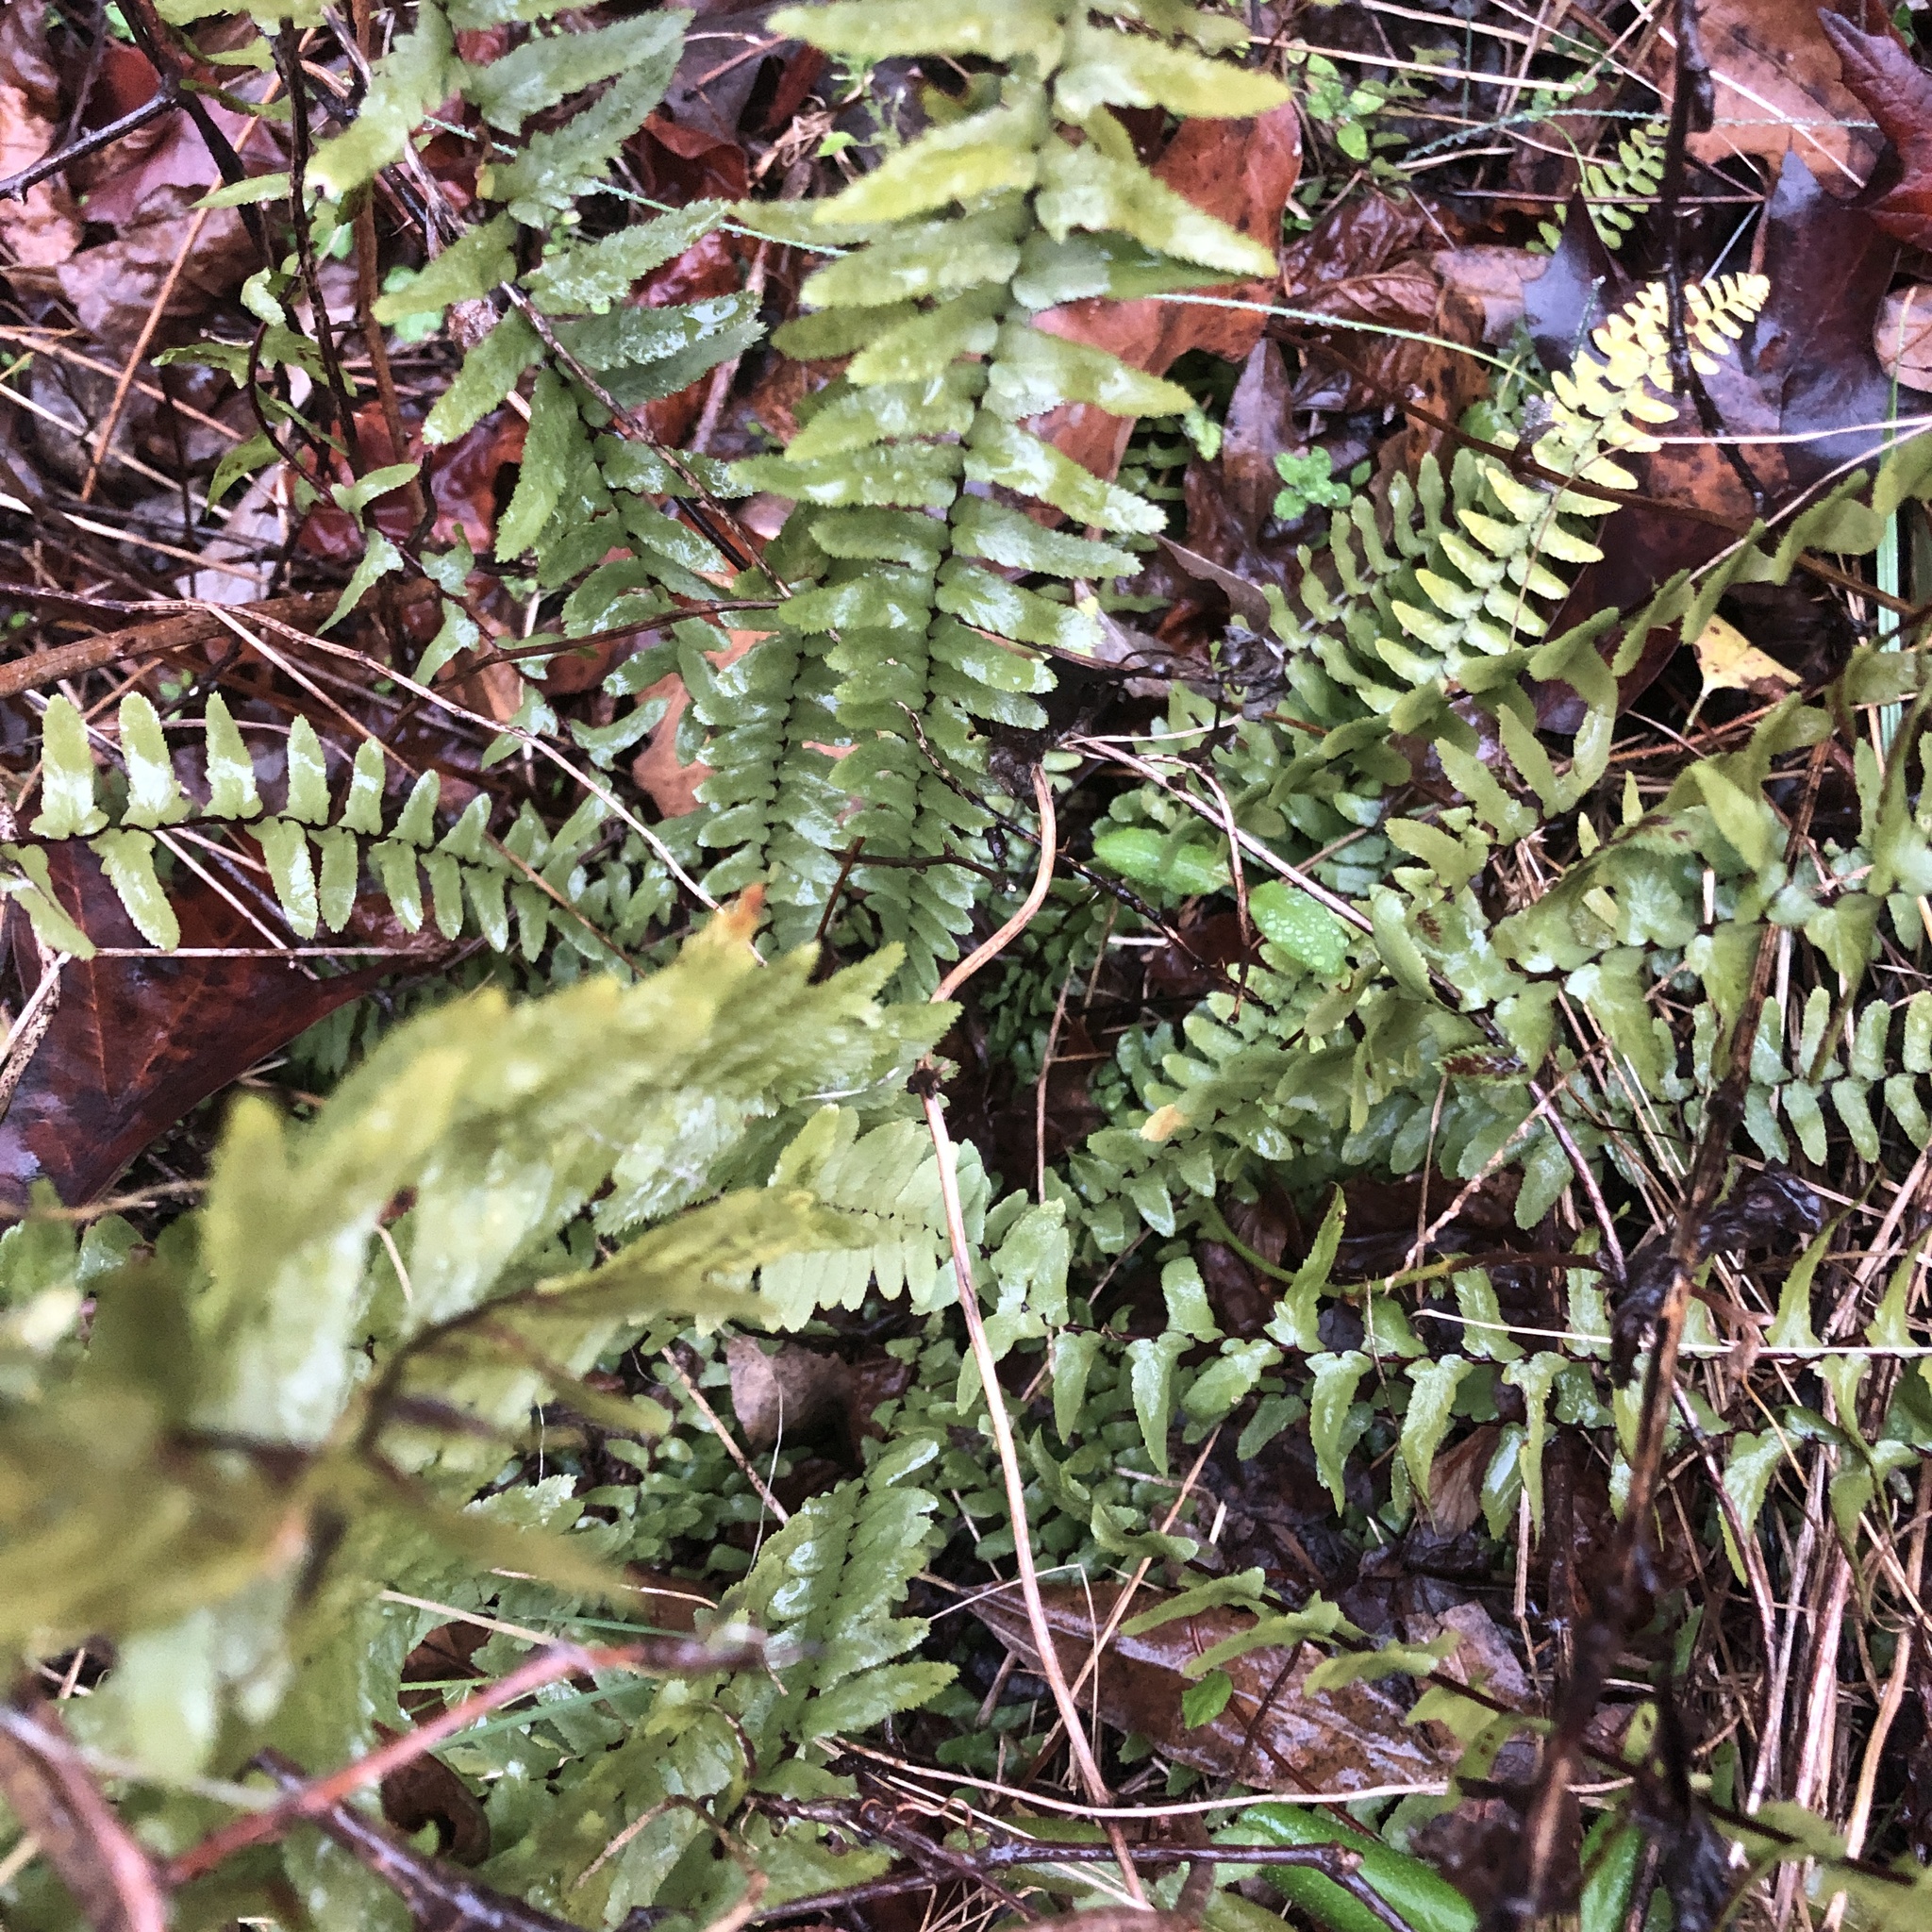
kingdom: Plantae
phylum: Tracheophyta
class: Polypodiopsida
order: Polypodiales
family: Aspleniaceae
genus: Asplenium
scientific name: Asplenium platyneuron
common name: Ebony spleenwort
